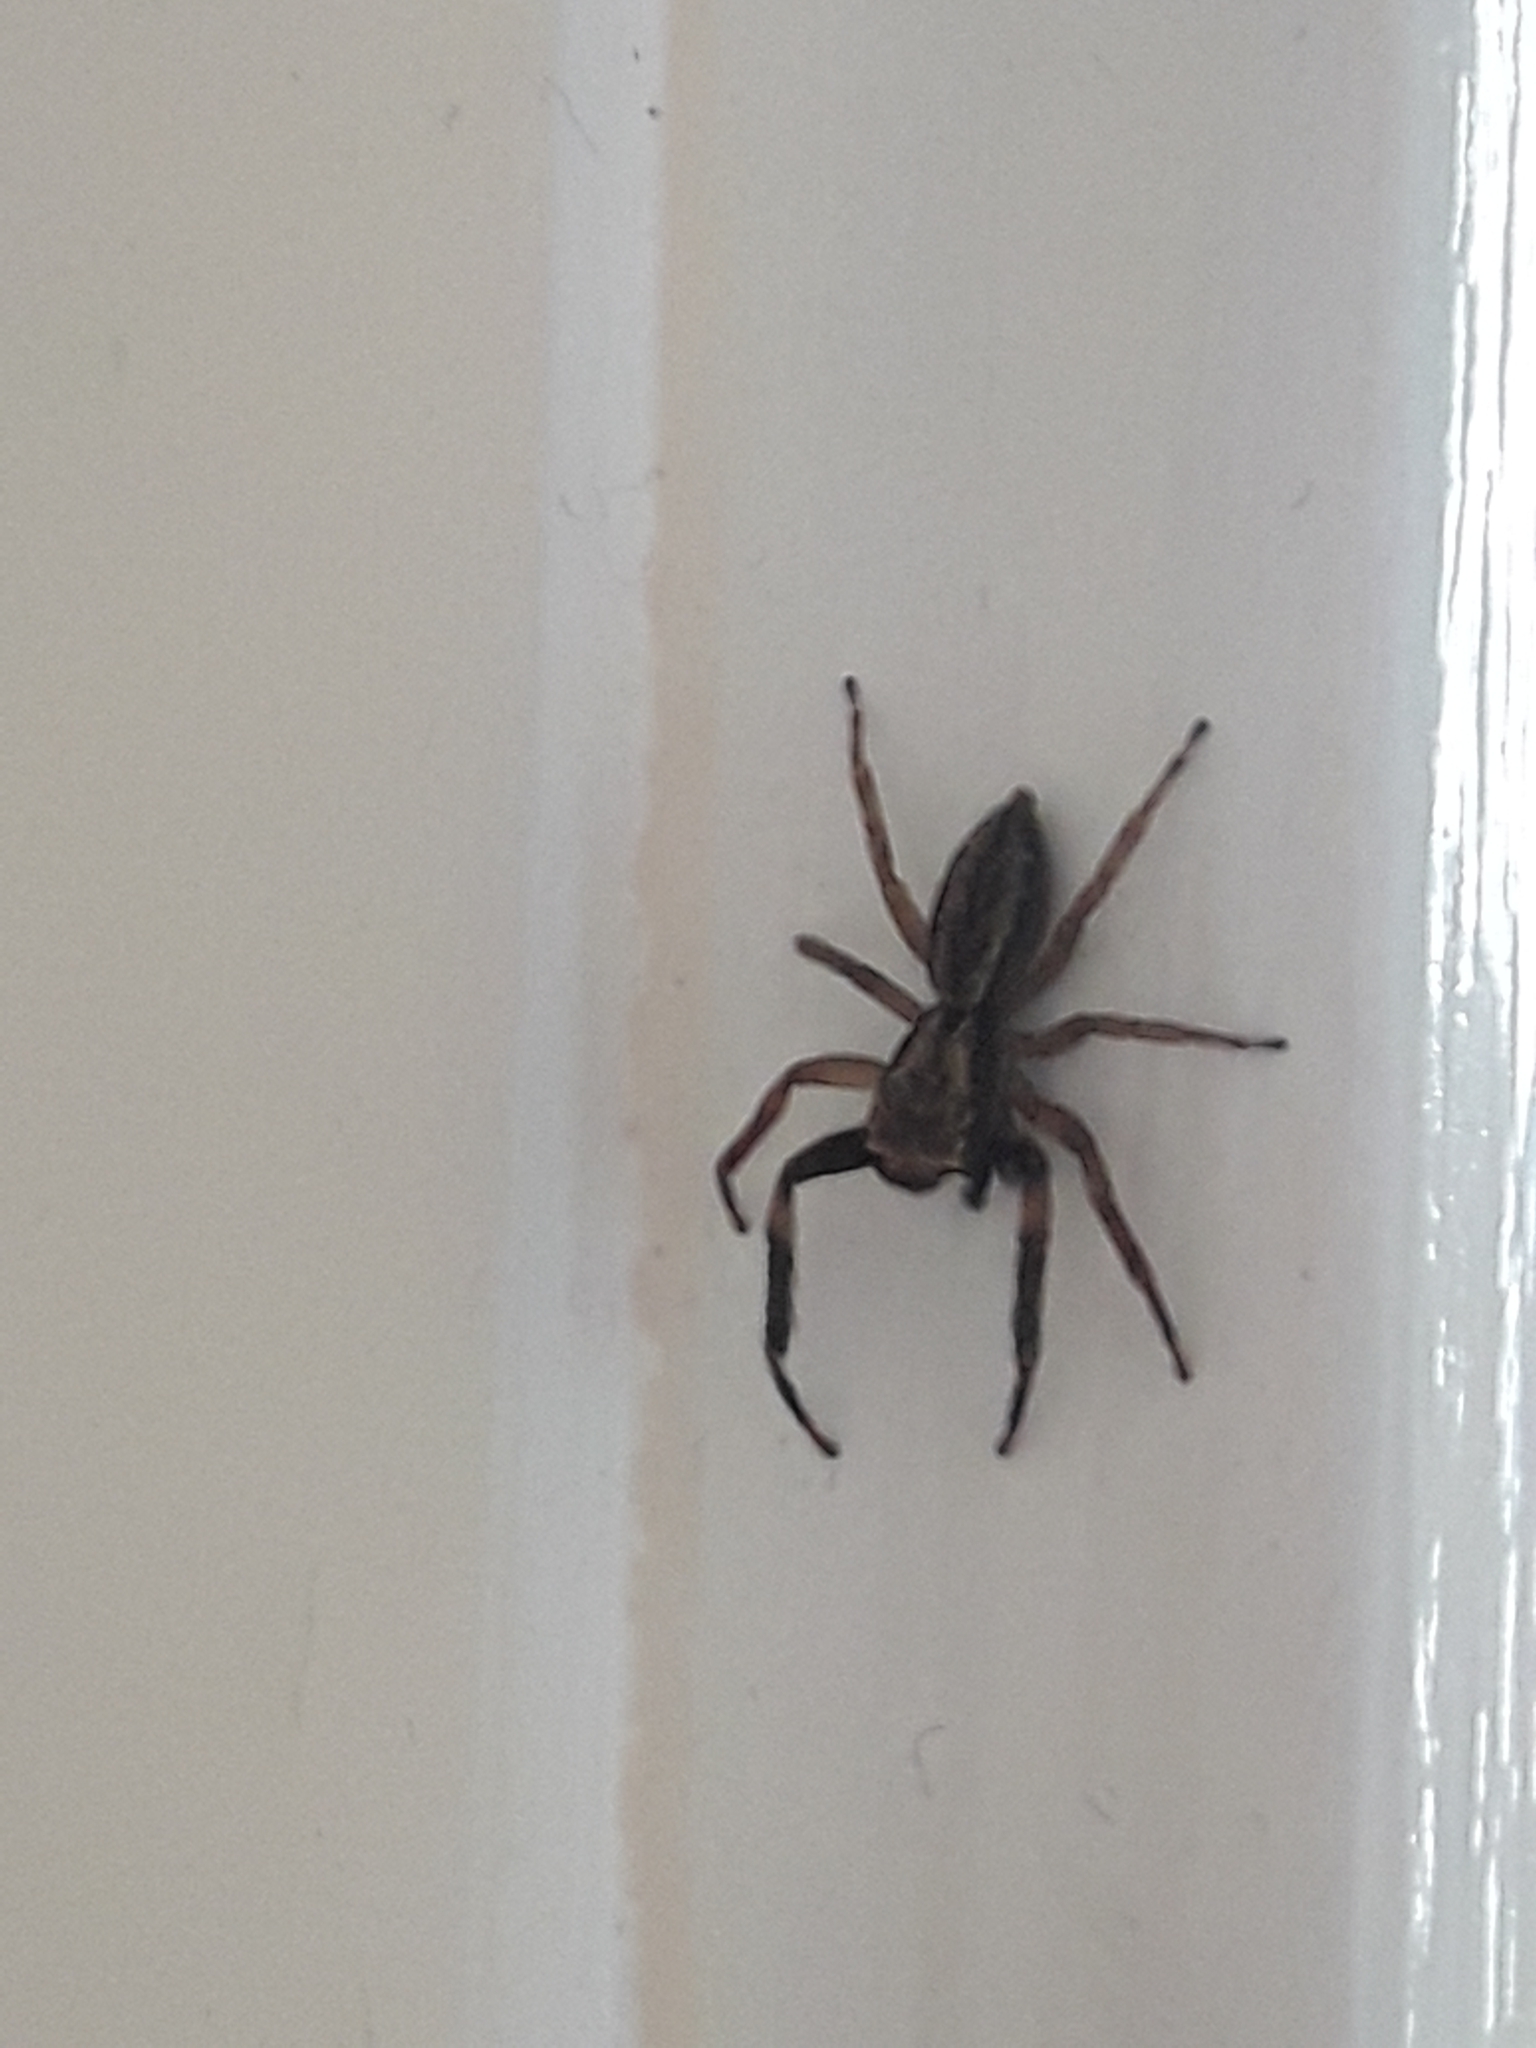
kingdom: Animalia
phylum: Arthropoda
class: Arachnida
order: Araneae
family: Salticidae
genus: Trite
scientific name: Trite auricoma
